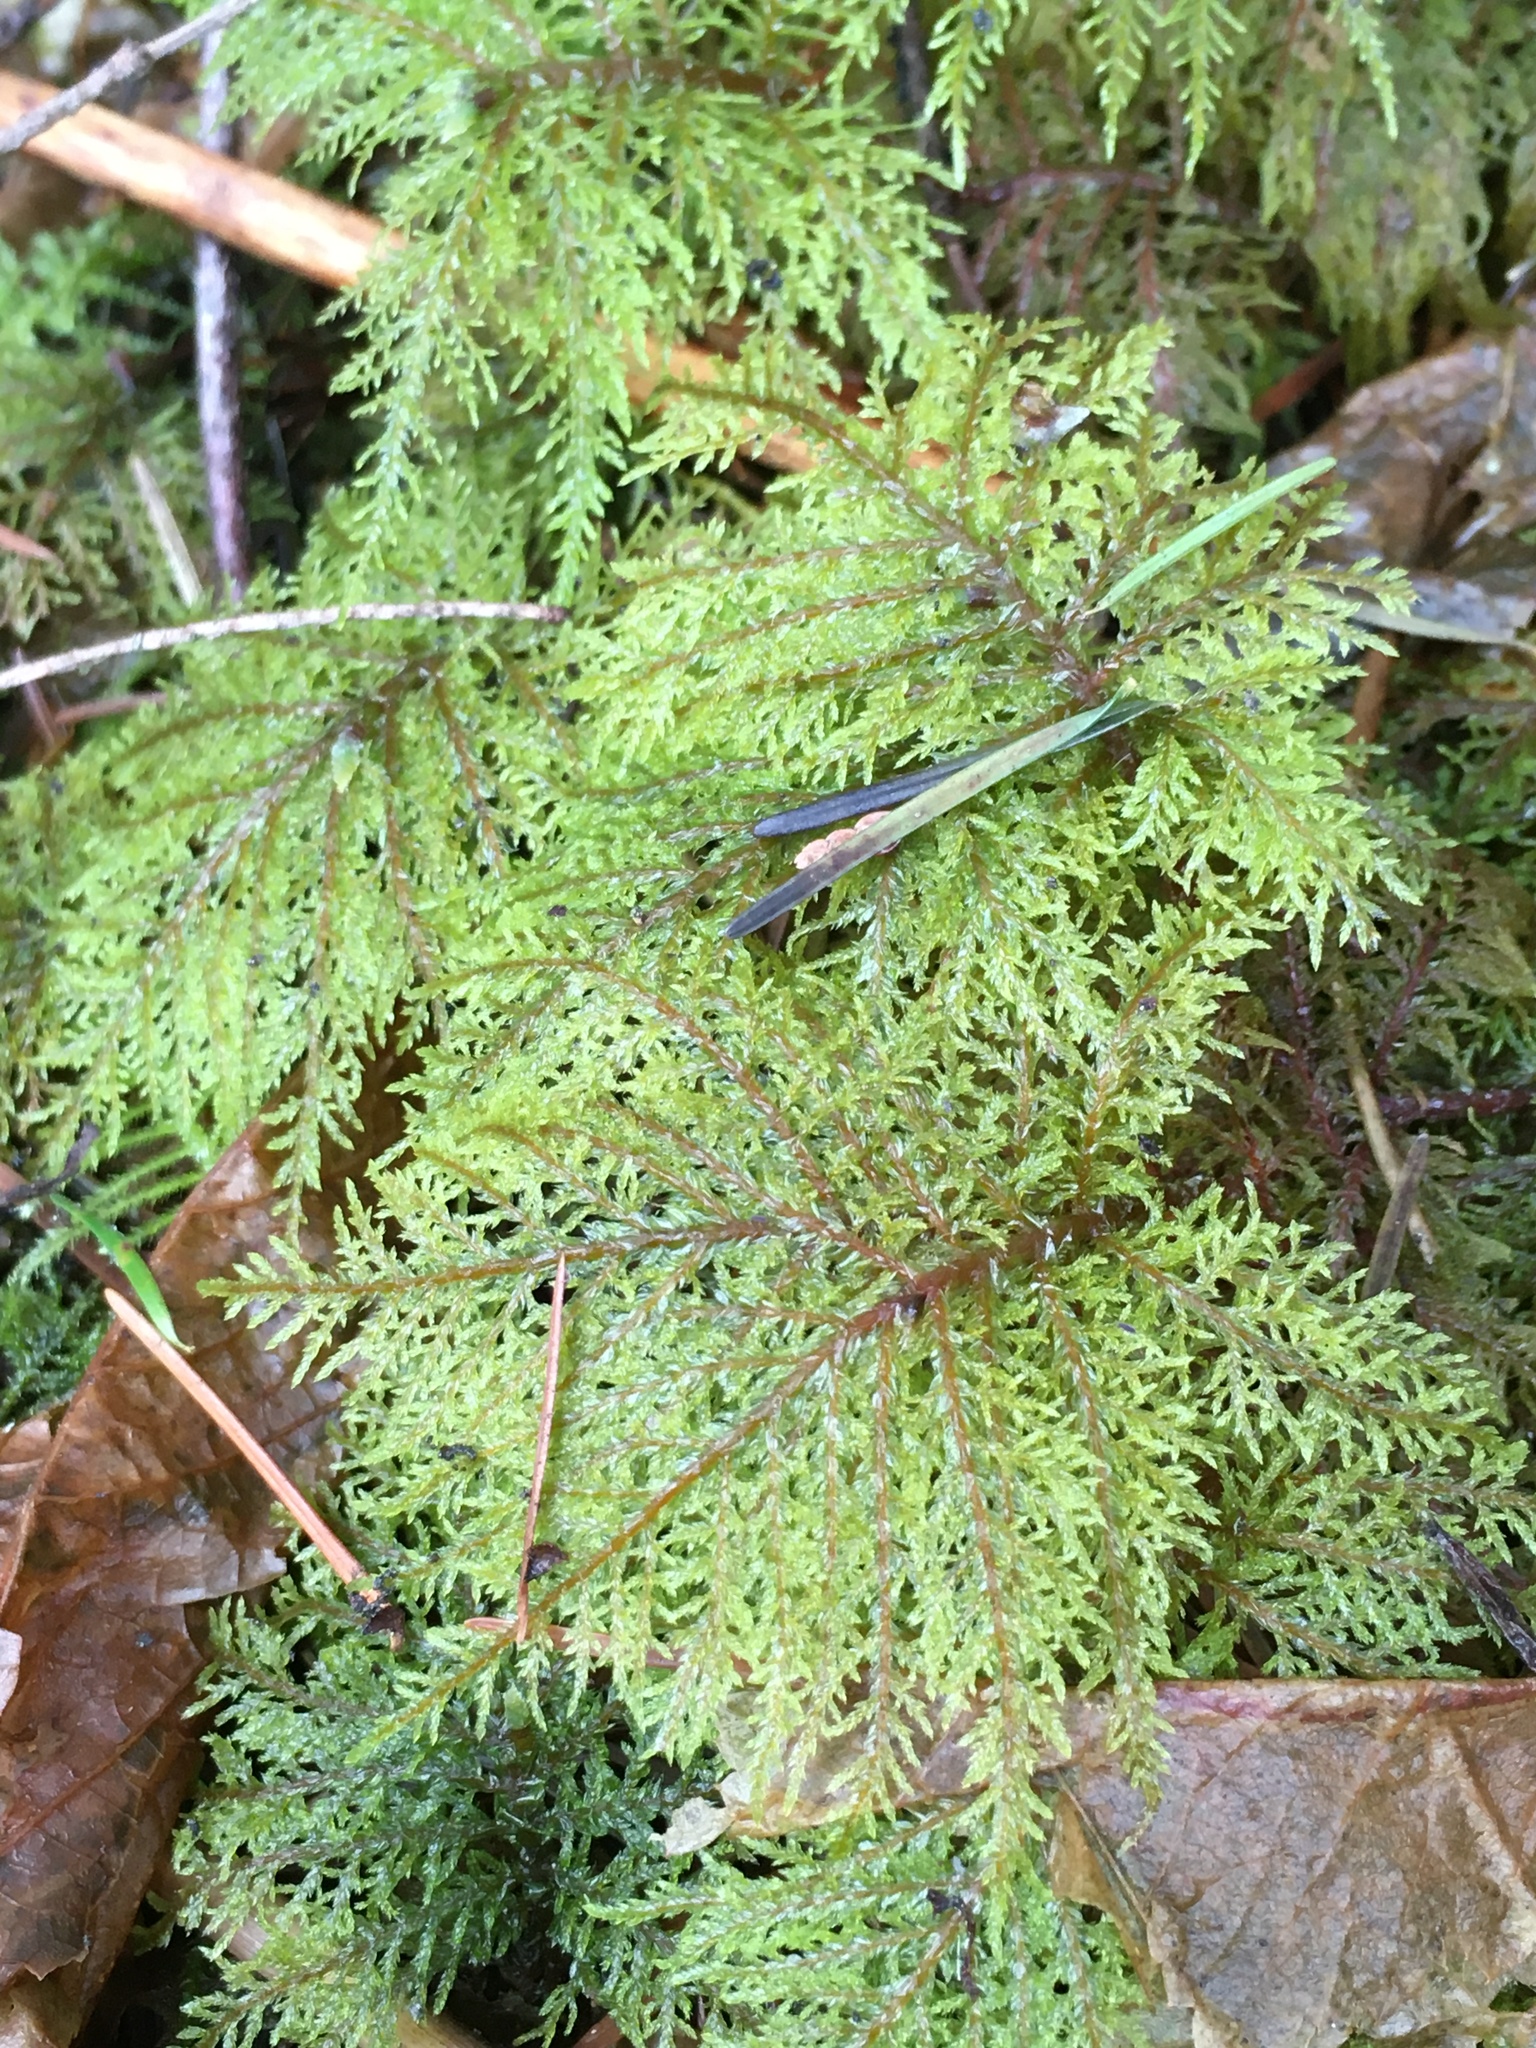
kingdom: Plantae
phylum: Bryophyta
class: Bryopsida
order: Hypnales
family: Hylocomiaceae
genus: Hylocomium
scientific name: Hylocomium splendens
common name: Stairstep moss
